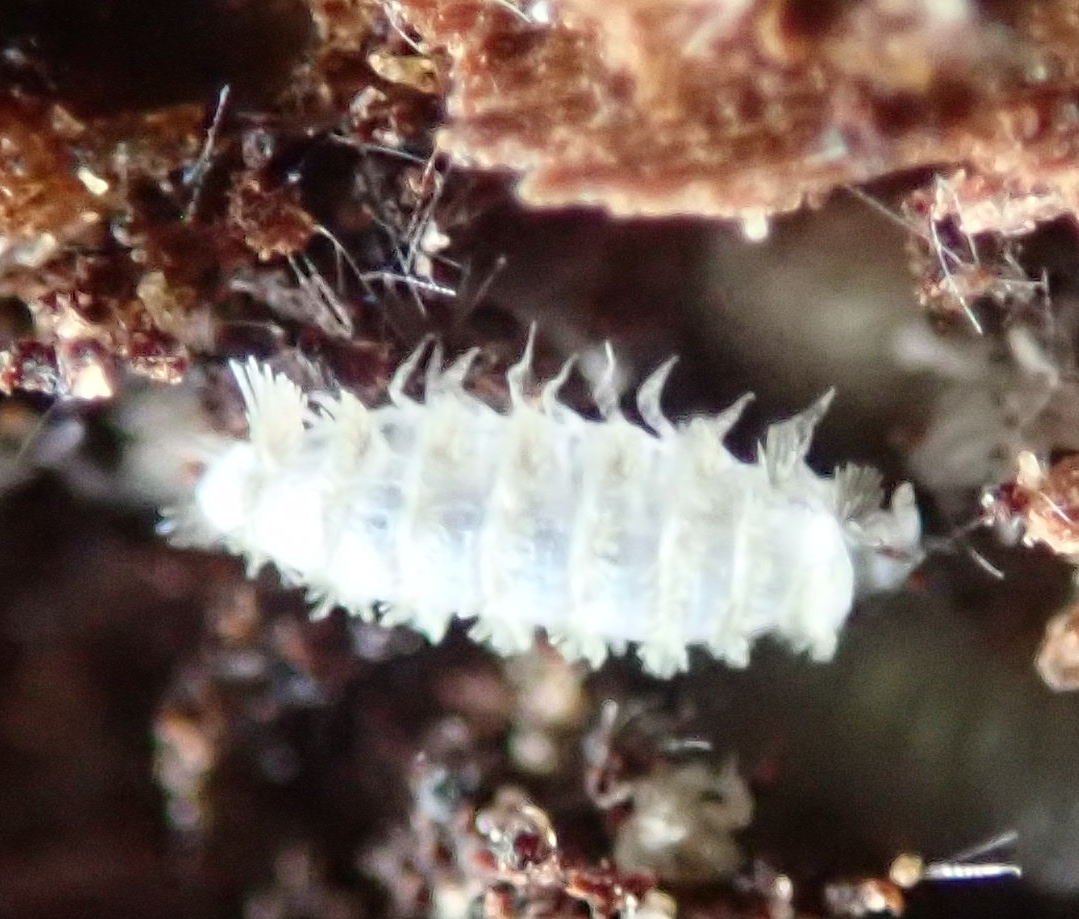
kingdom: Animalia
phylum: Arthropoda
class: Diplopoda
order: Polyxenida
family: Polyxenidae
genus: Polyxenus
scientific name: Polyxenus lagurus
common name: Bristly millipede
